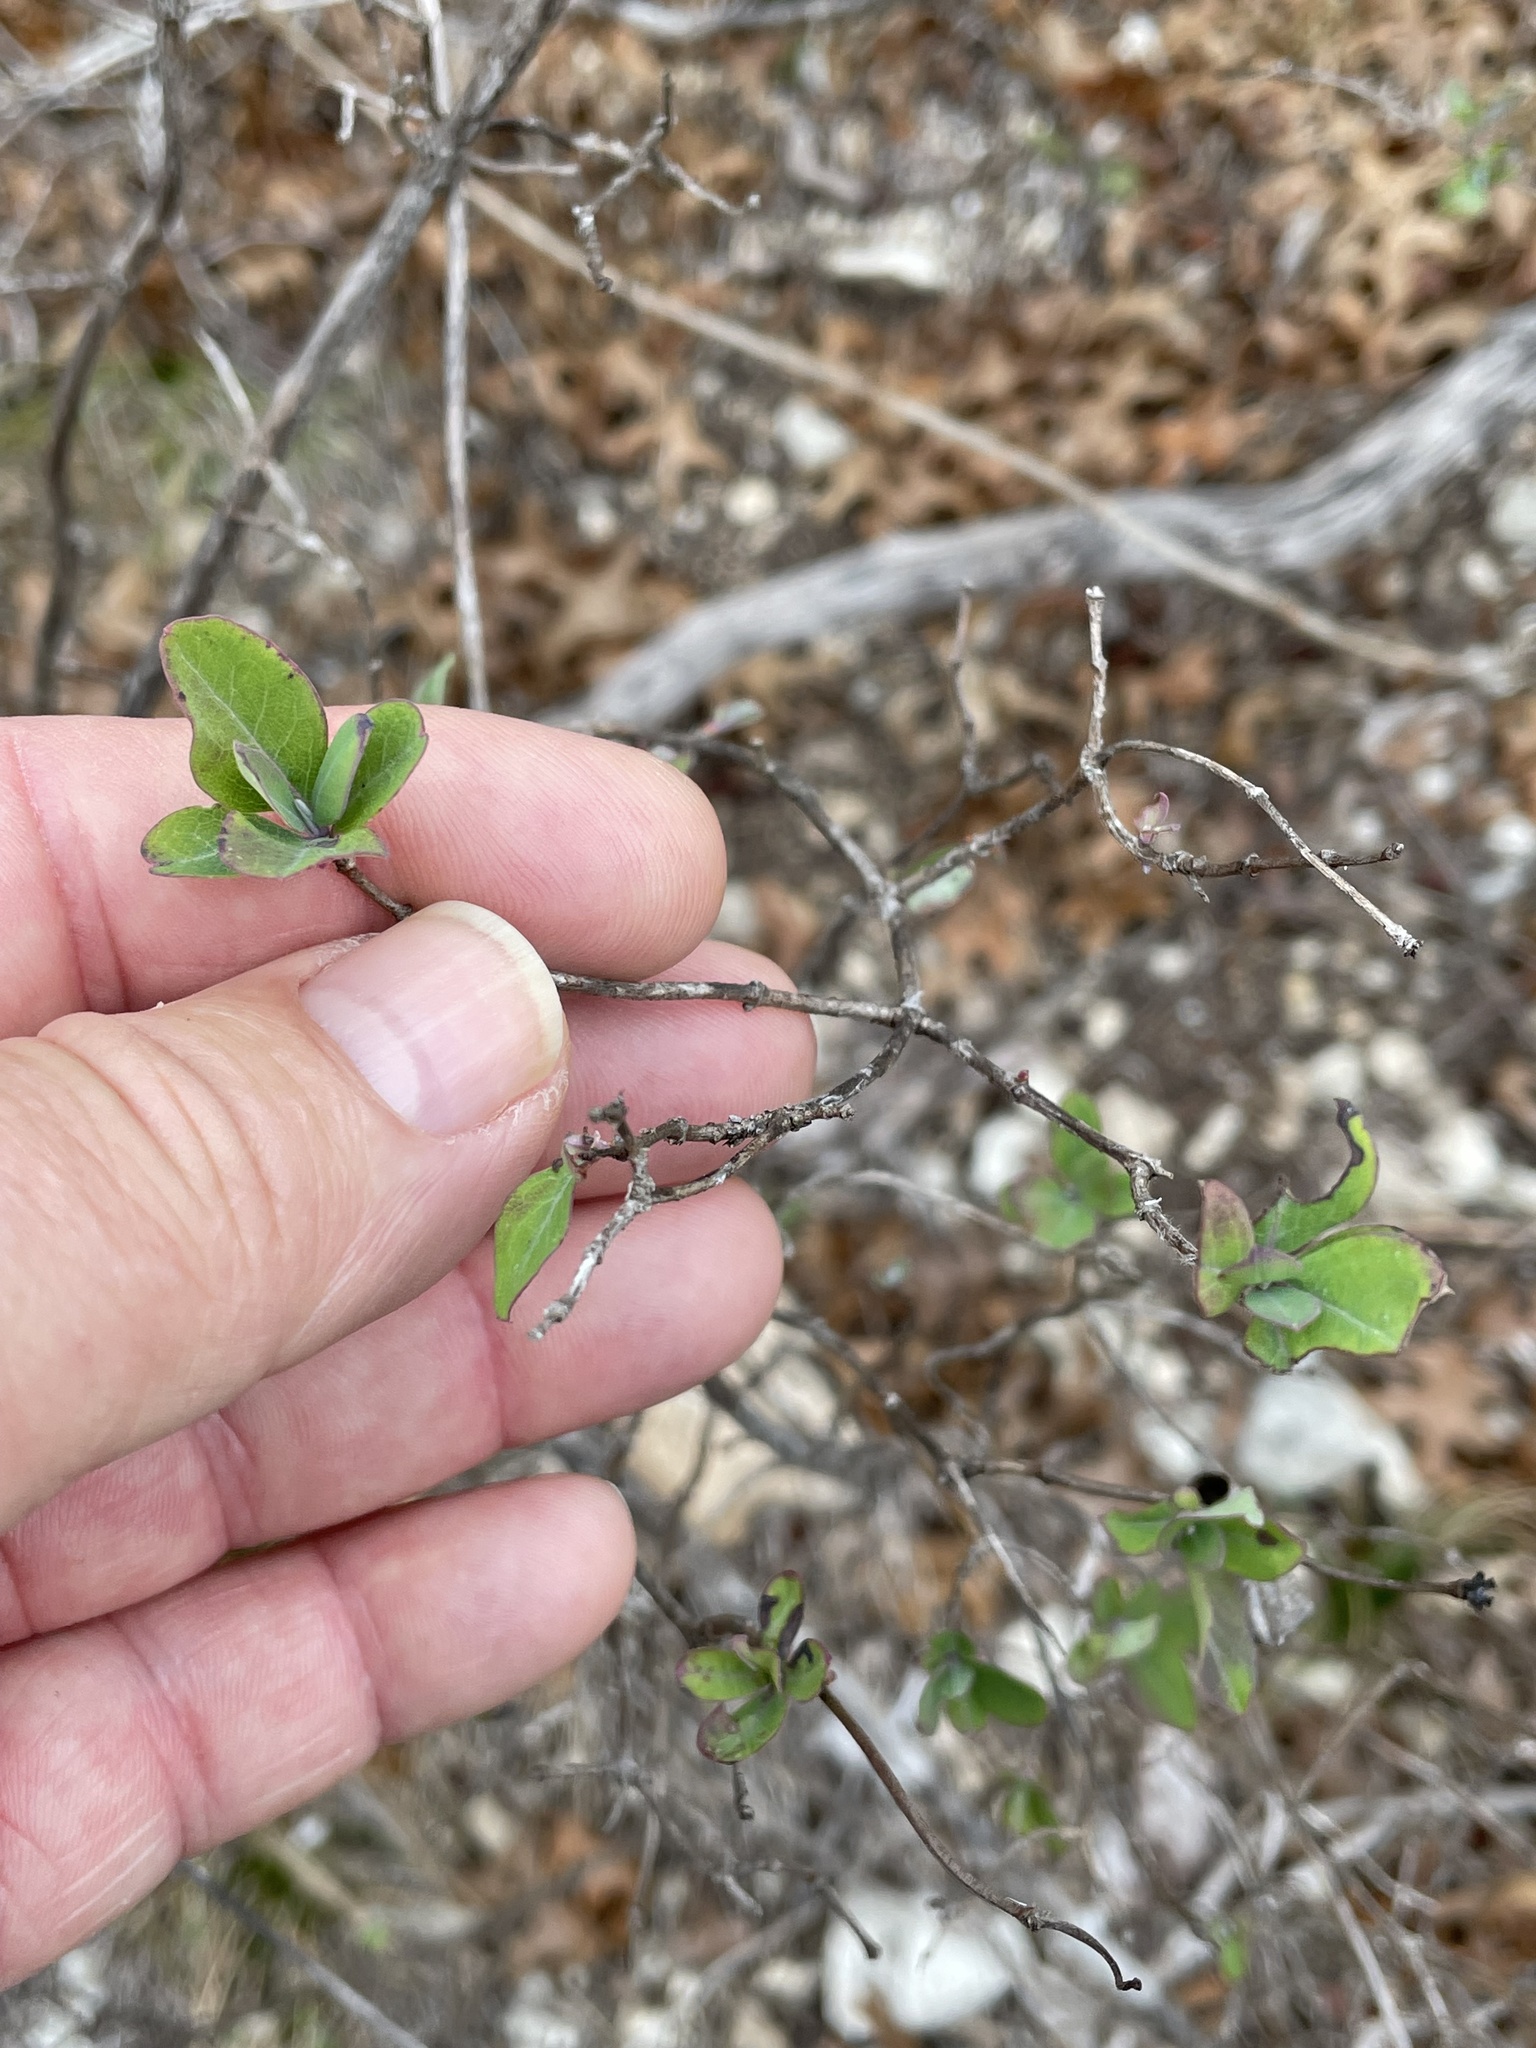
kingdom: Plantae
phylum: Tracheophyta
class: Magnoliopsida
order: Dipsacales
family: Caprifoliaceae
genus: Lonicera
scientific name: Lonicera albiflora
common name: White honeysuckle
